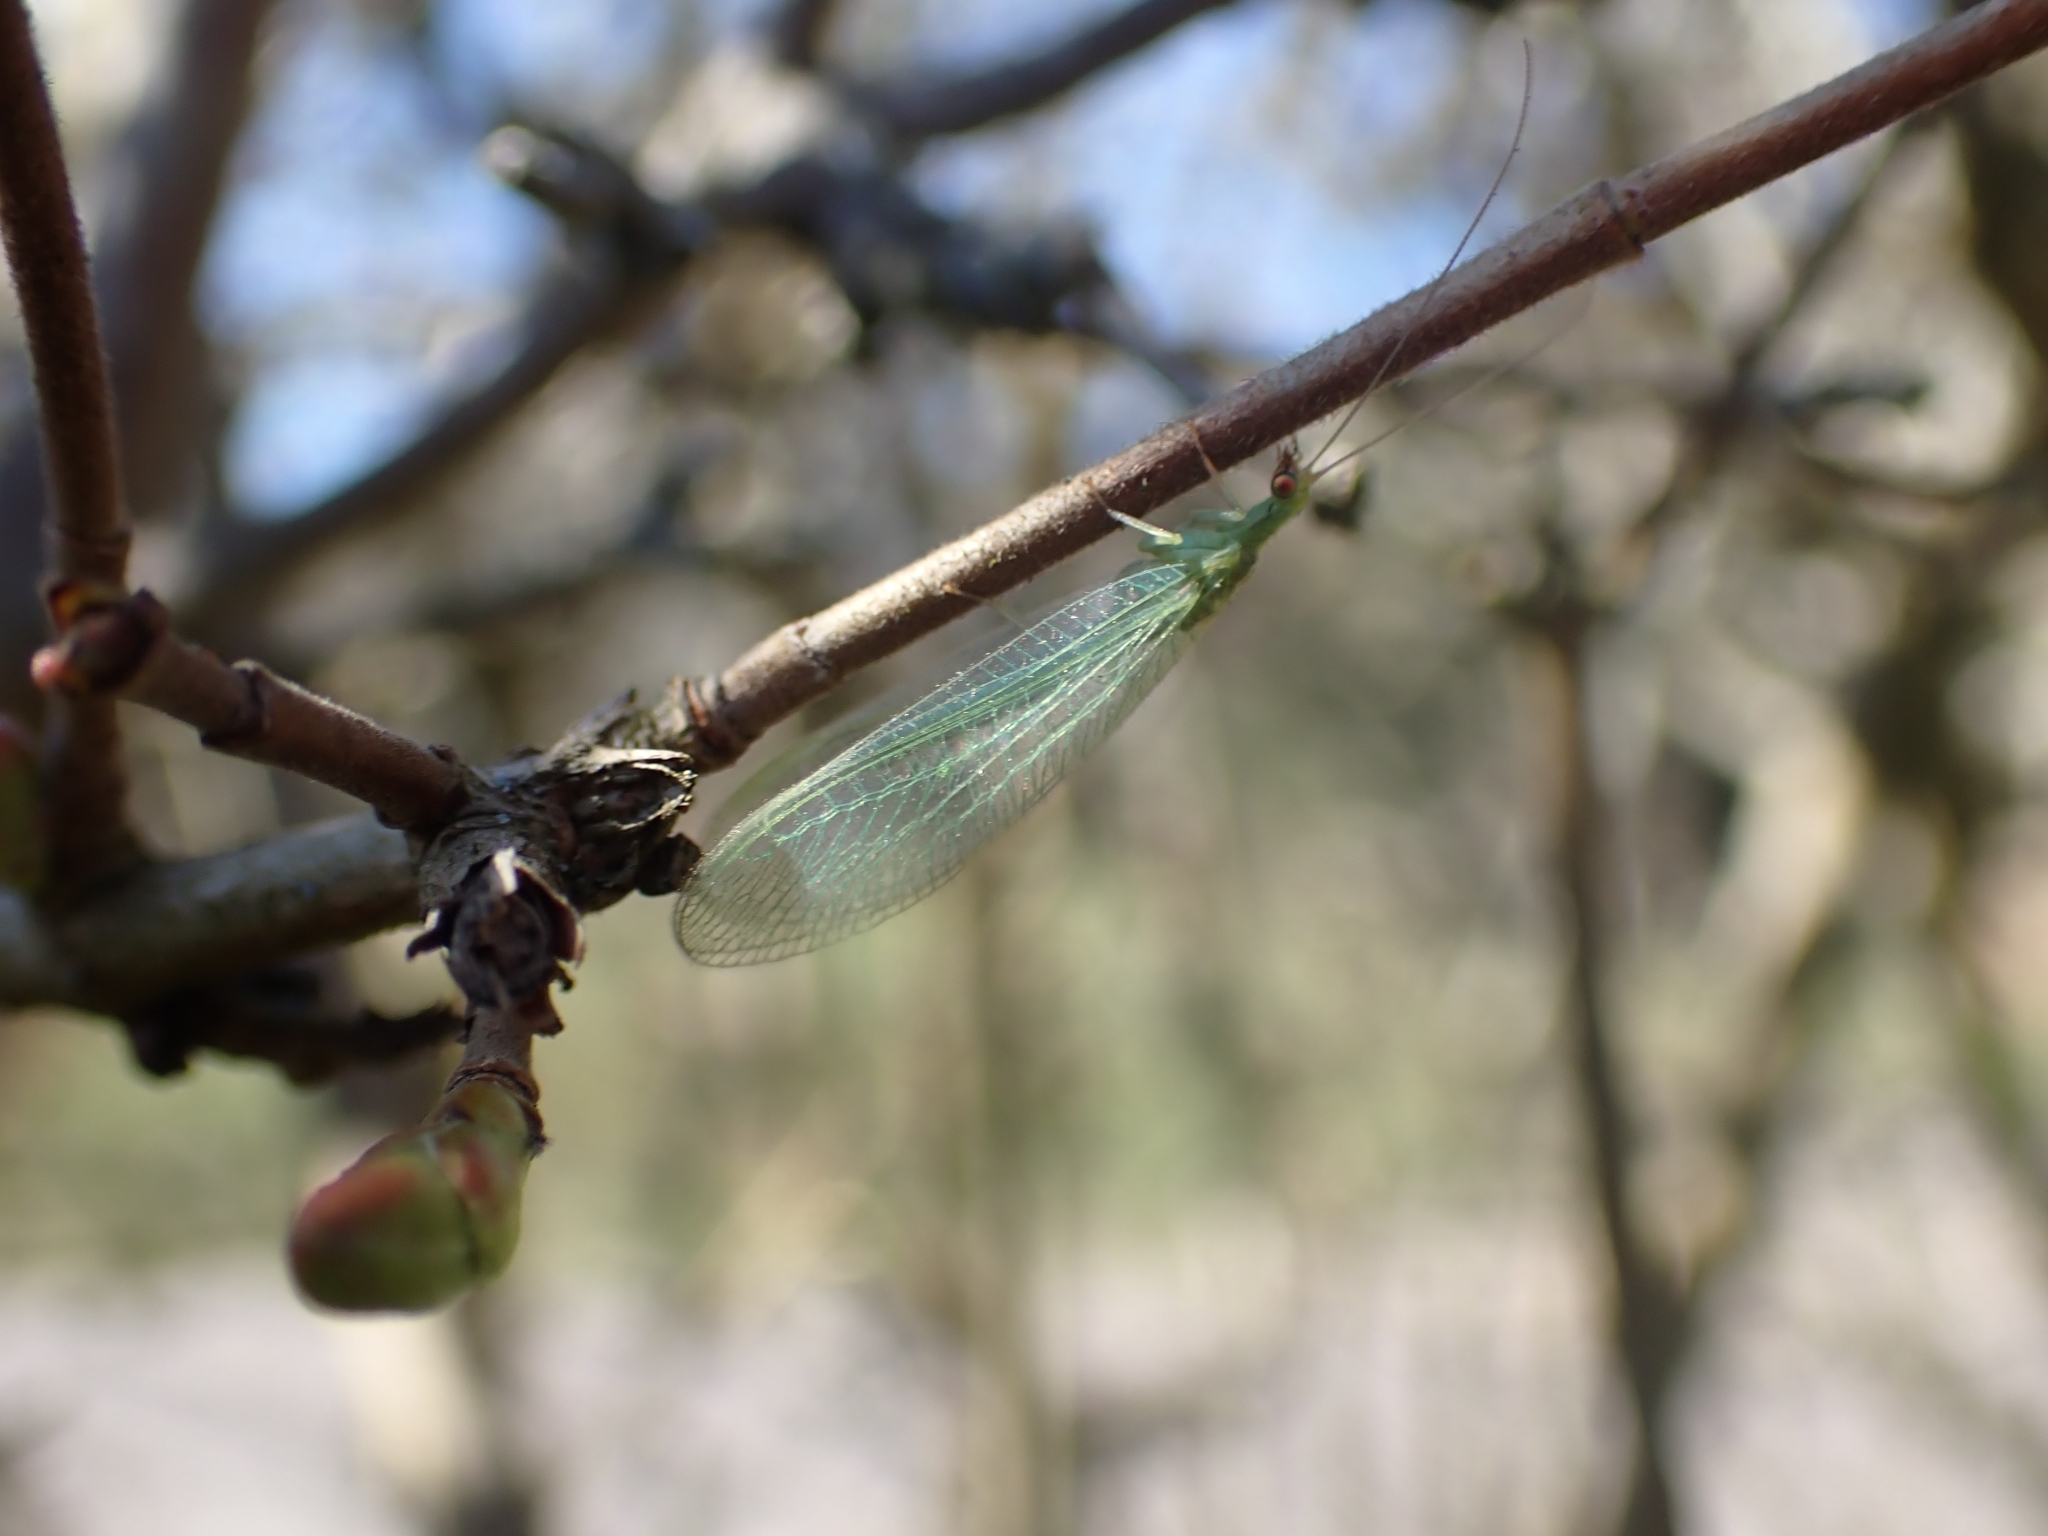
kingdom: Animalia
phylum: Arthropoda
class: Insecta
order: Neuroptera
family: Chrysopidae
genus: Chrysoperla
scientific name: Chrysoperla
